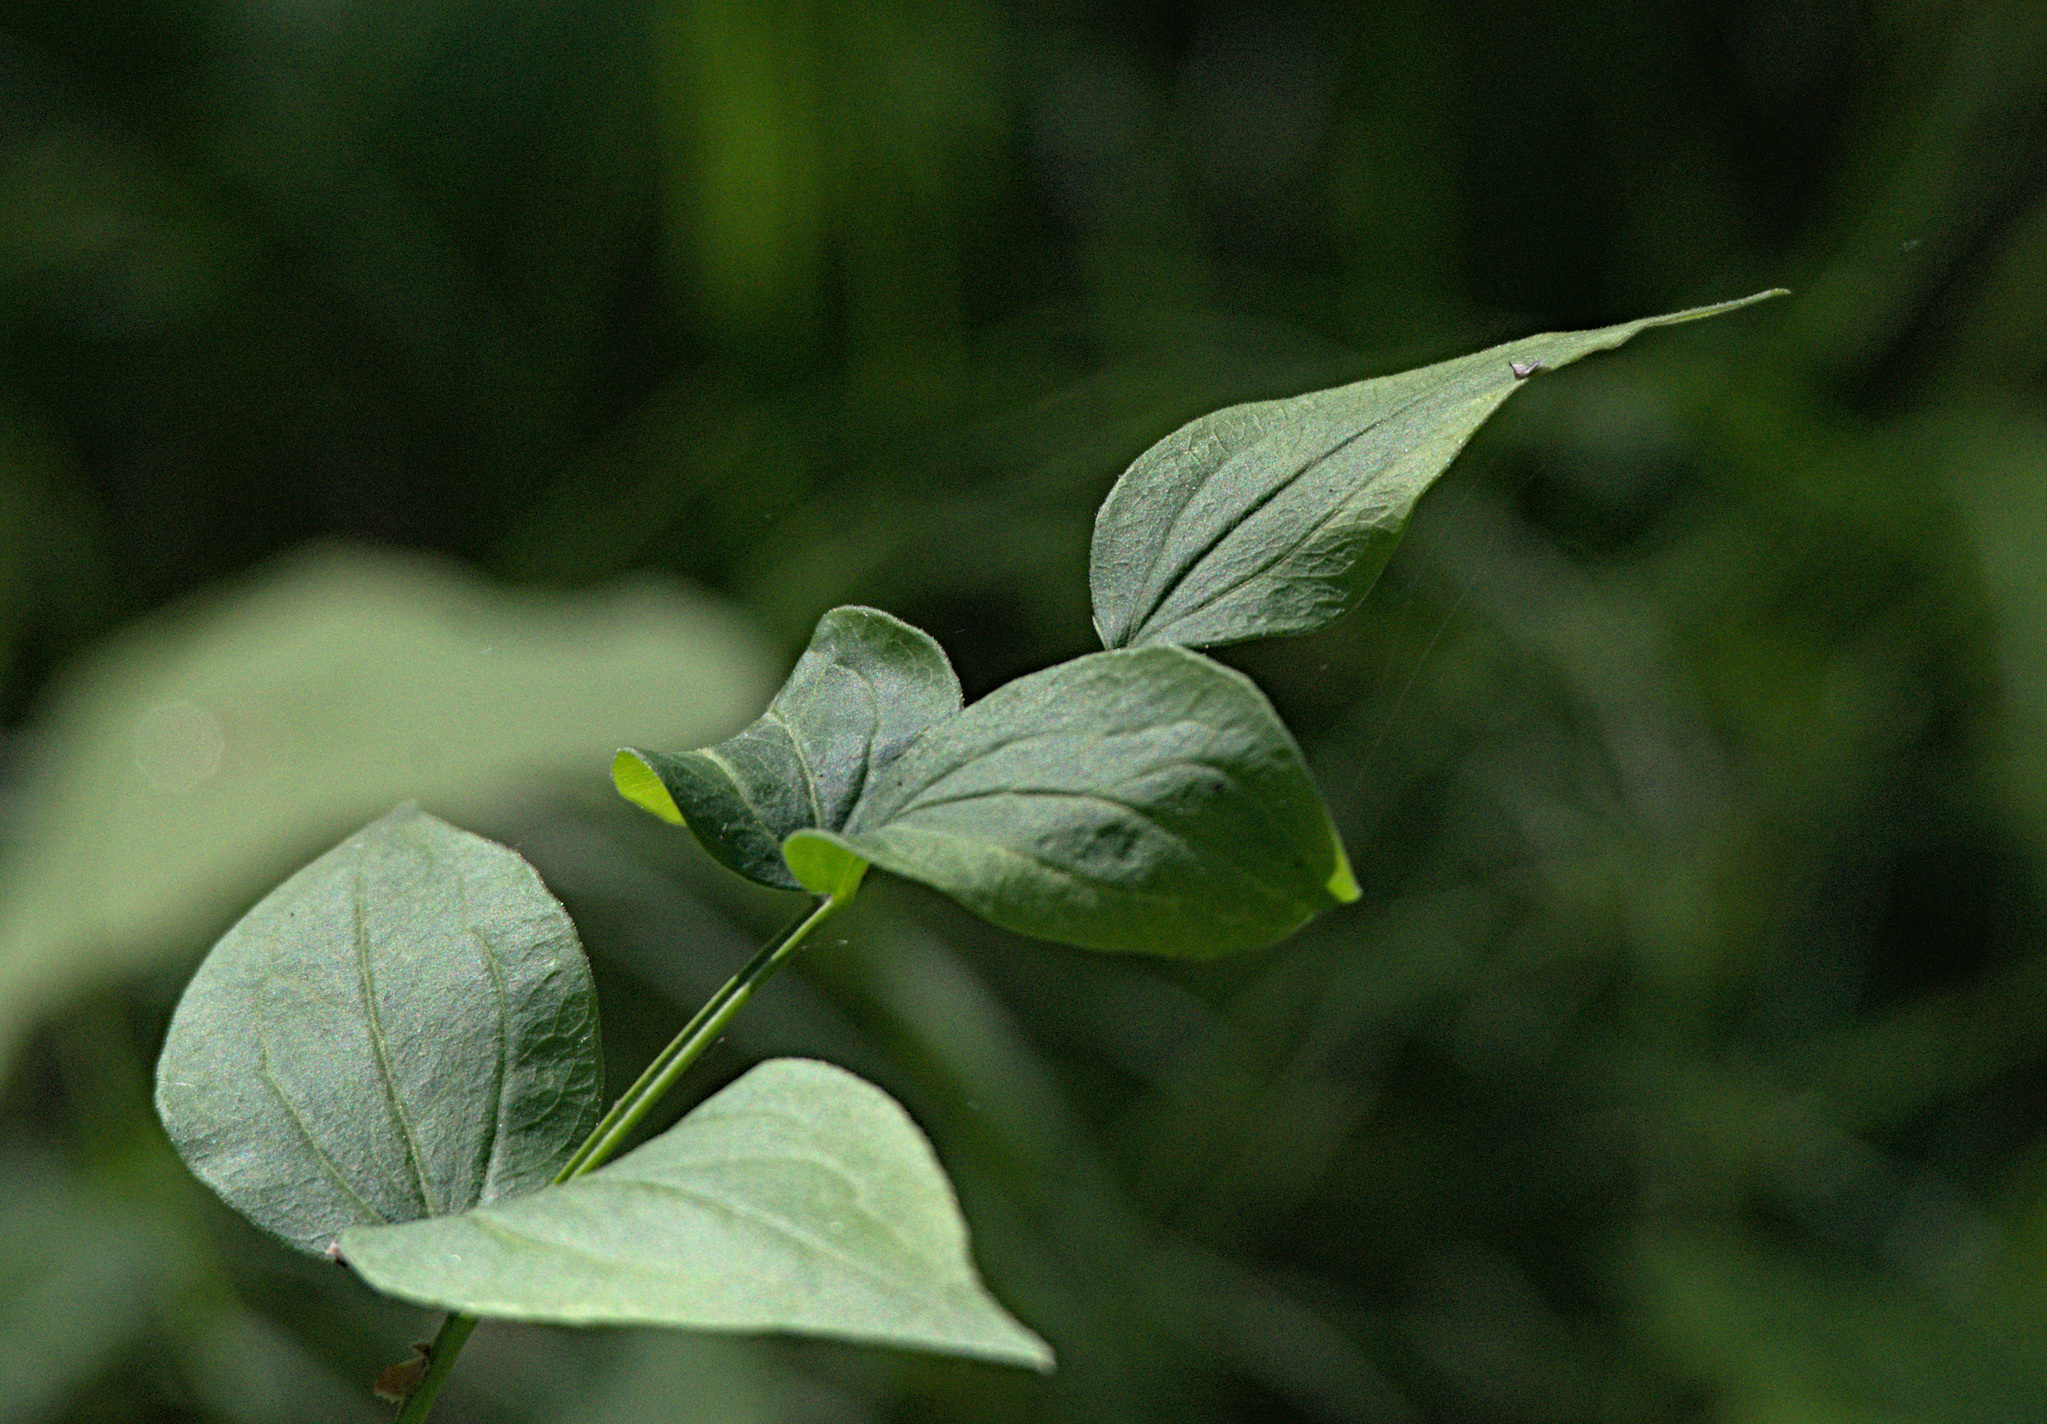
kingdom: Plantae
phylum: Tracheophyta
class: Magnoliopsida
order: Fabales
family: Fabaceae
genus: Lathyrus
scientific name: Lathyrus vernus
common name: Spring pea
